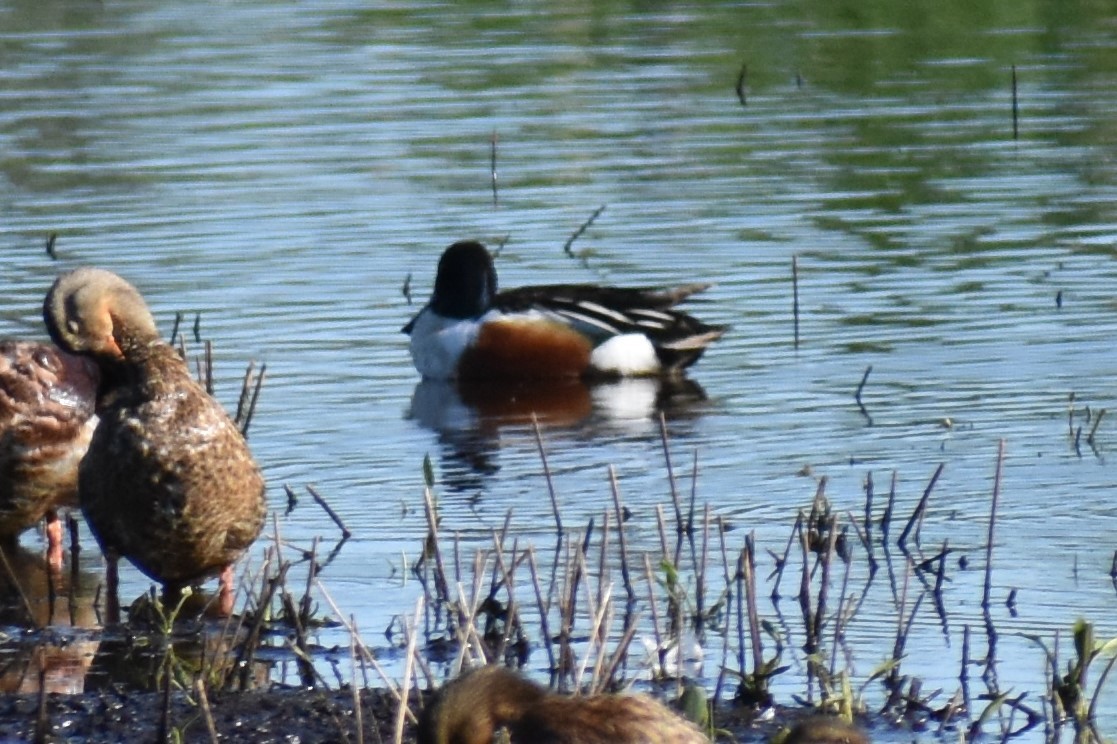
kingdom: Animalia
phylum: Chordata
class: Aves
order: Anseriformes
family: Anatidae
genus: Spatula
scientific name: Spatula clypeata
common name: Northern shoveler
